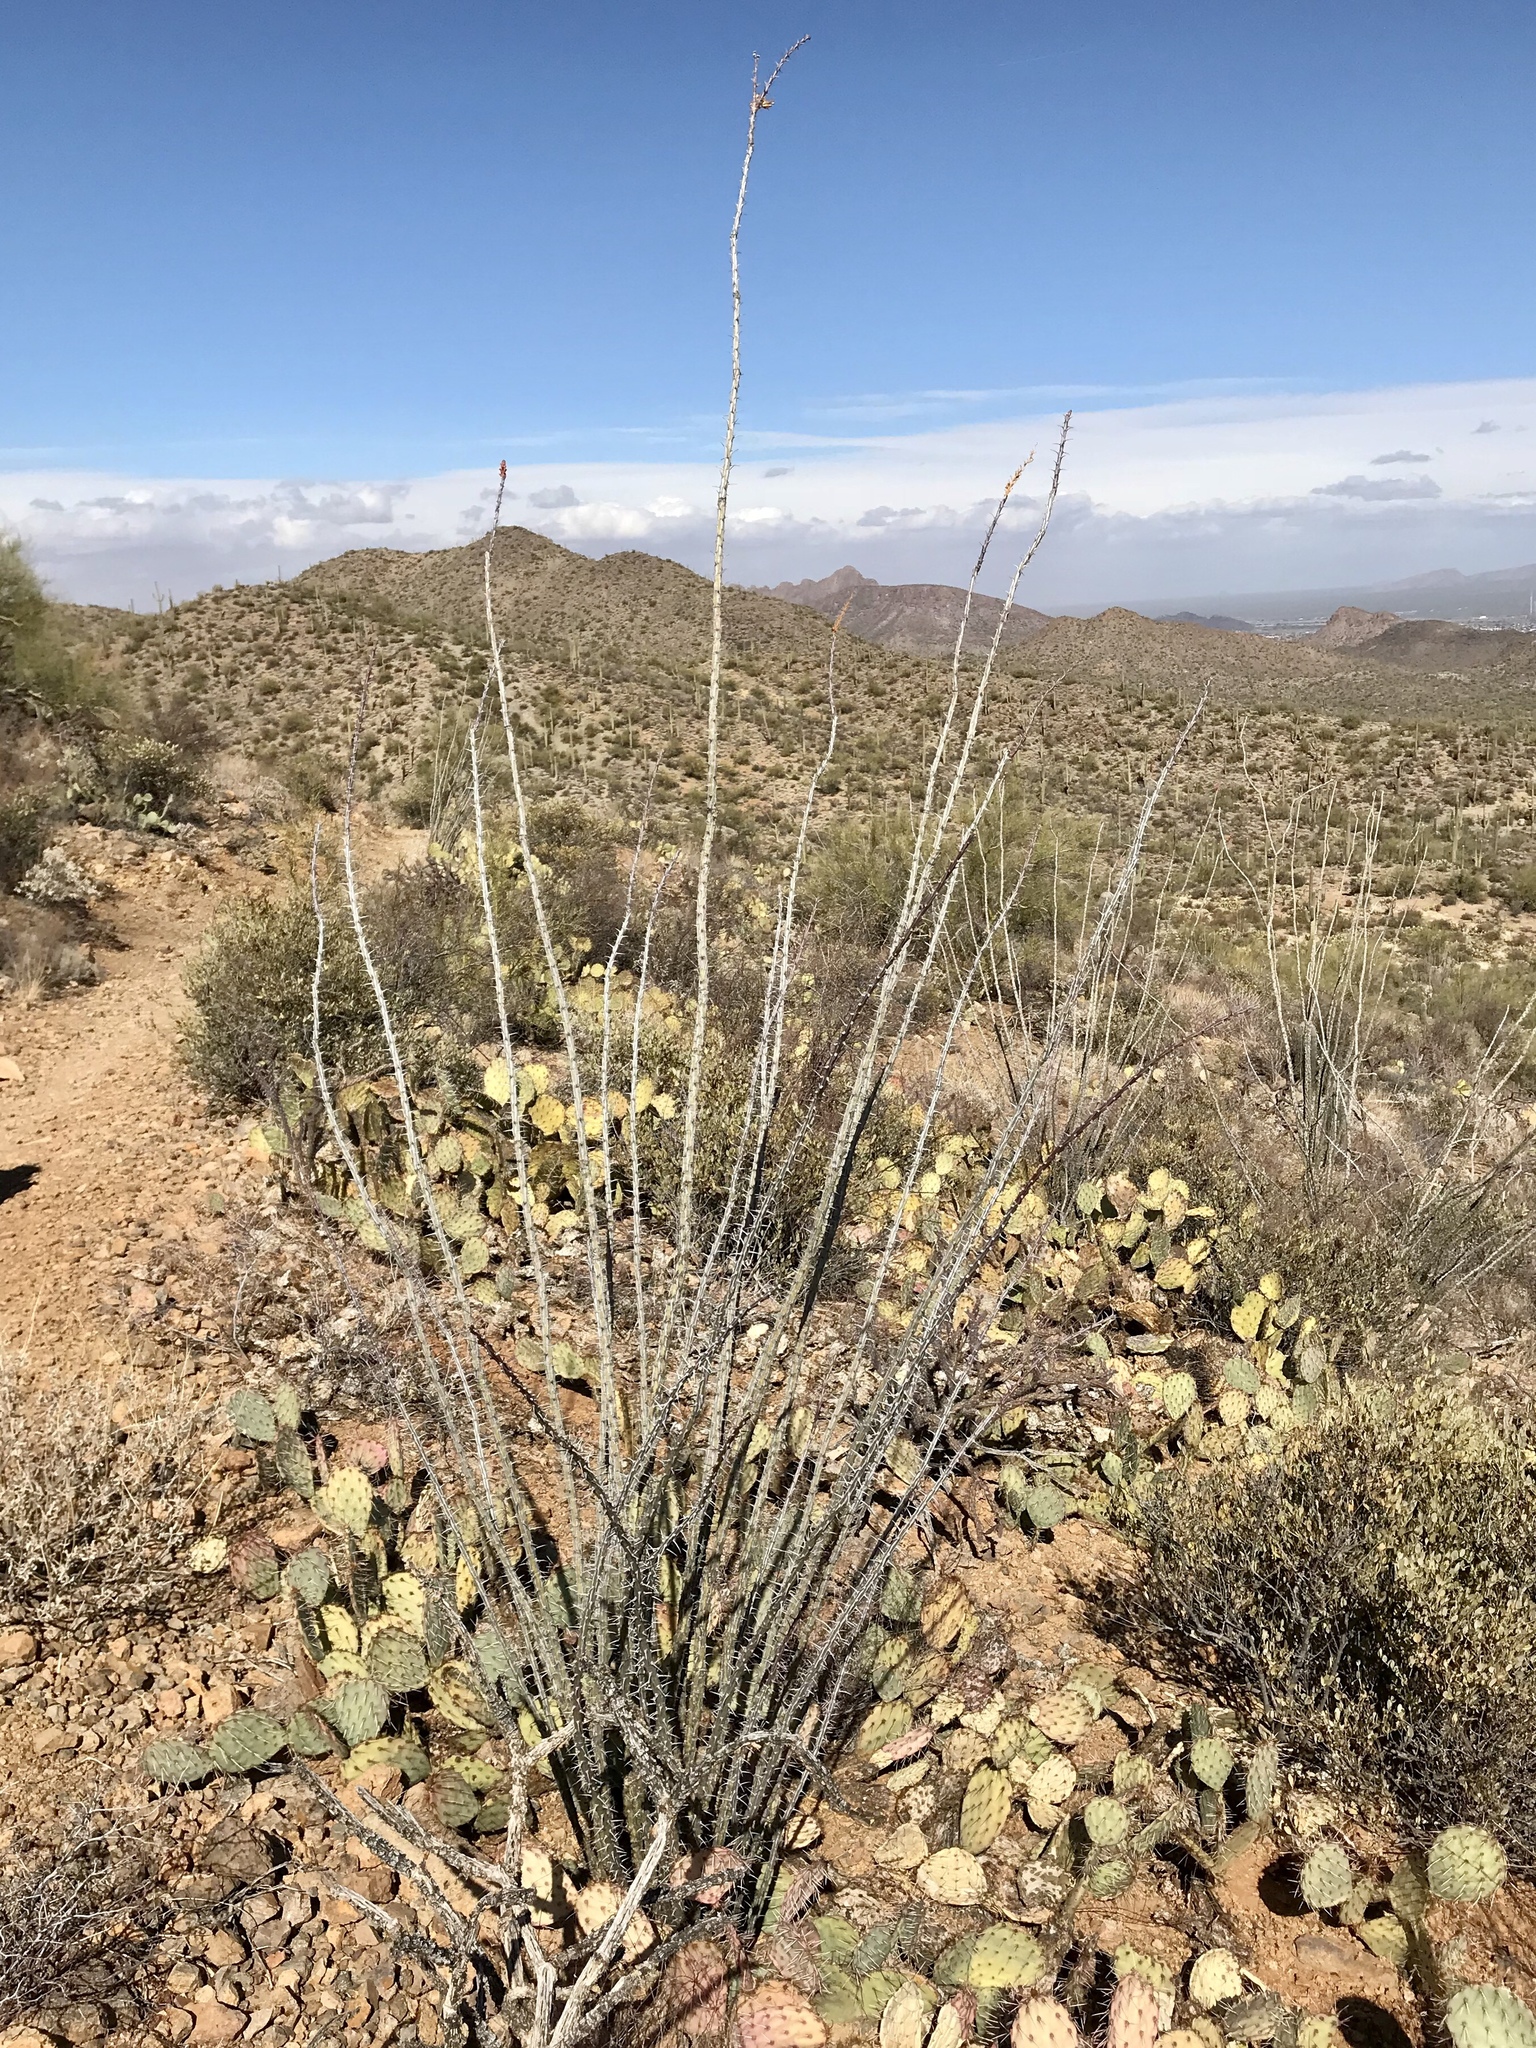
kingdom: Plantae
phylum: Tracheophyta
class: Magnoliopsida
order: Ericales
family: Fouquieriaceae
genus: Fouquieria
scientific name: Fouquieria splendens
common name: Vine-cactus
